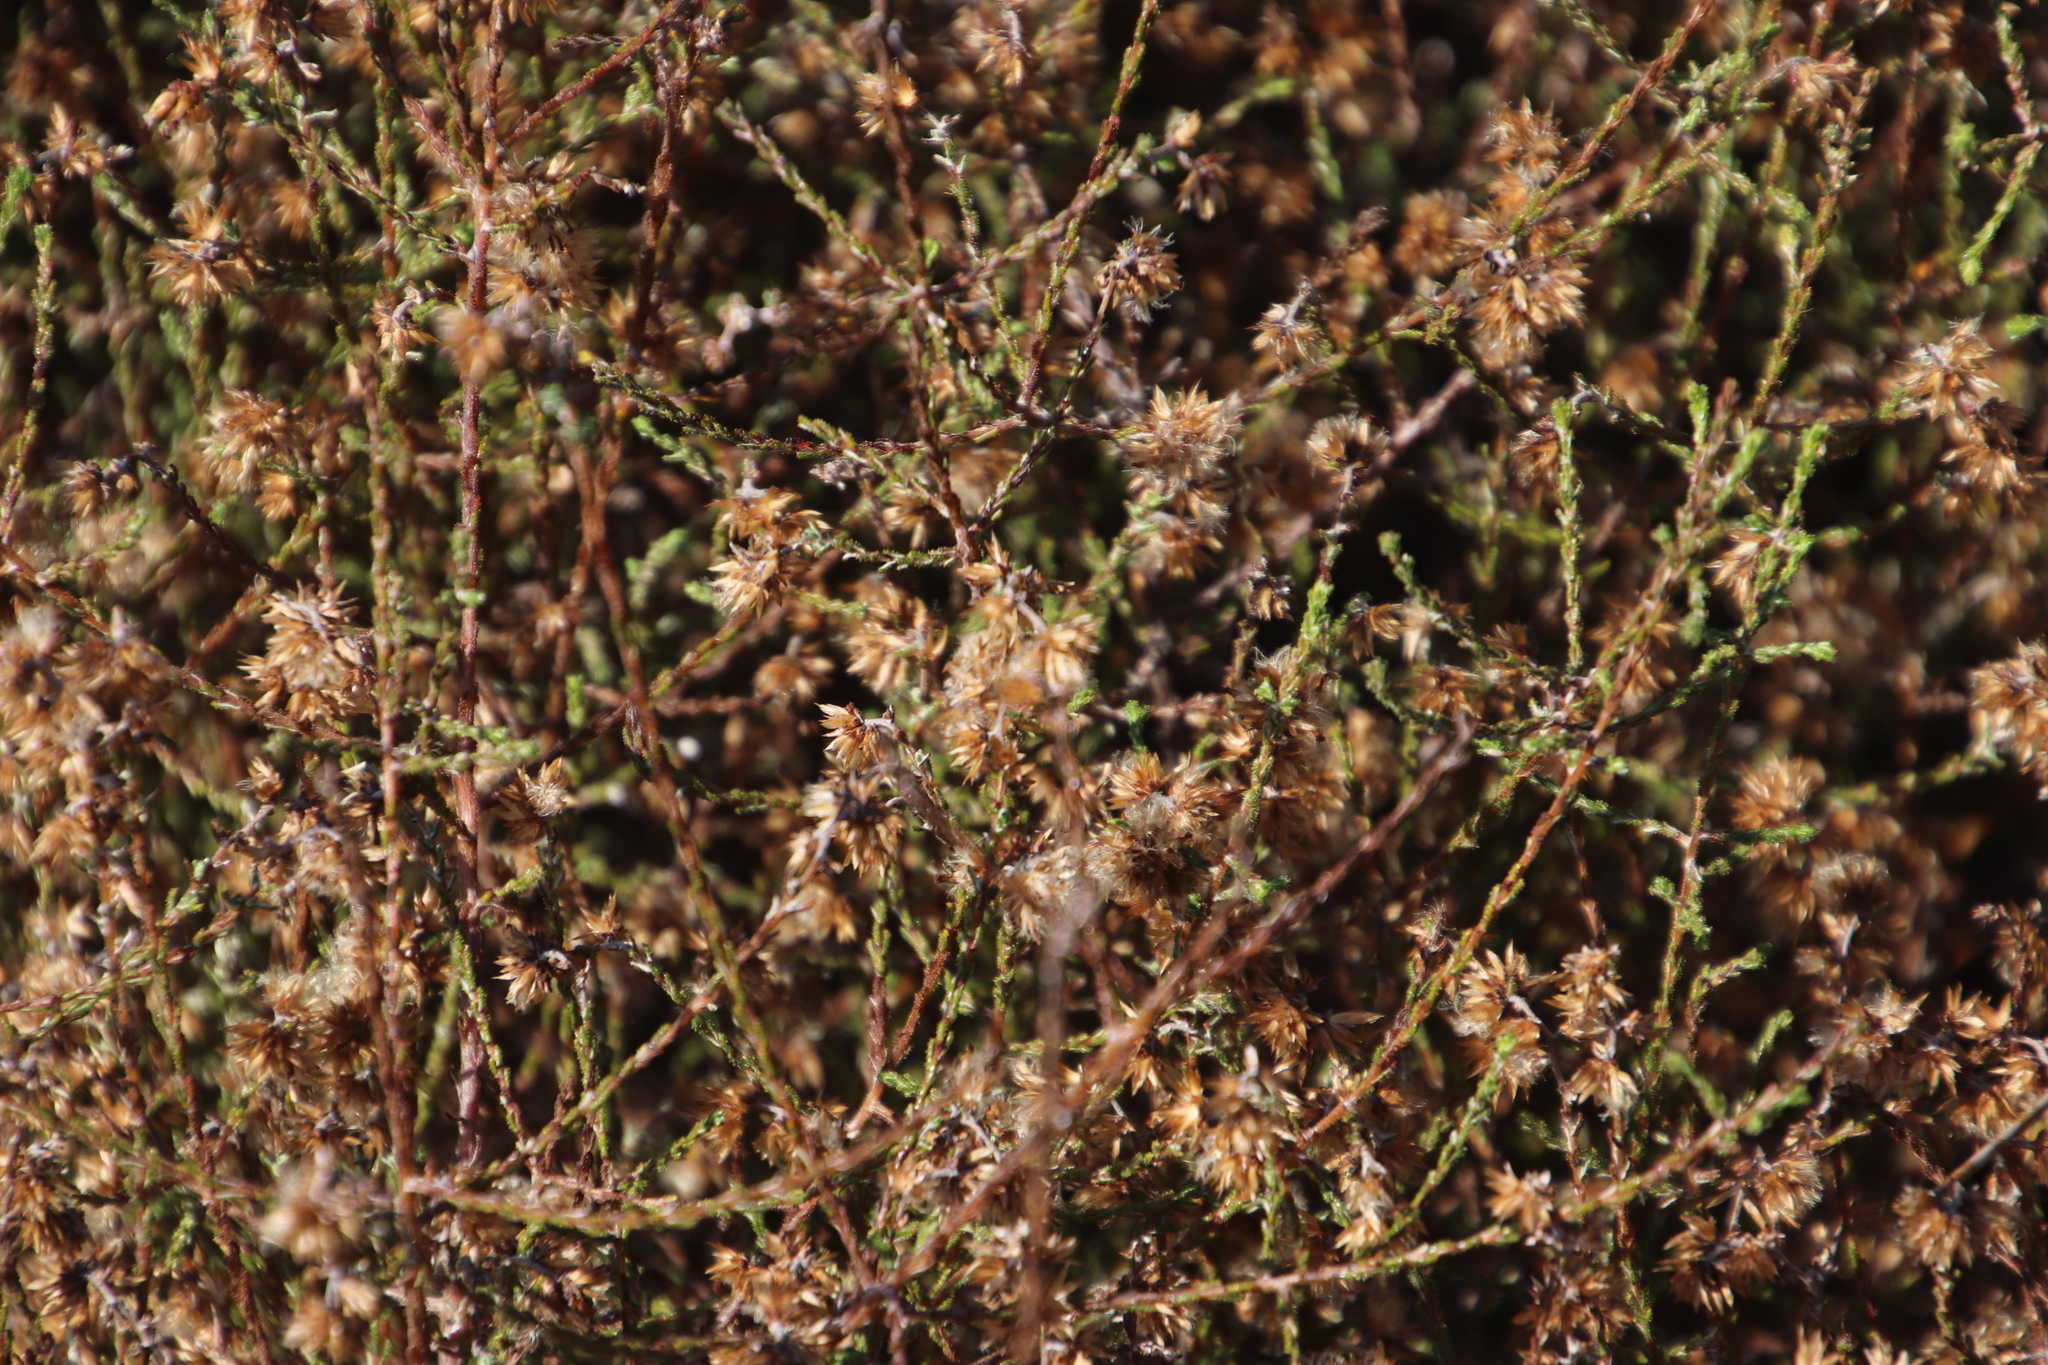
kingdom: Plantae
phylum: Tracheophyta
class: Magnoliopsida
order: Asterales
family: Asteraceae
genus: Myrovernix
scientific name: Myrovernix scaber
